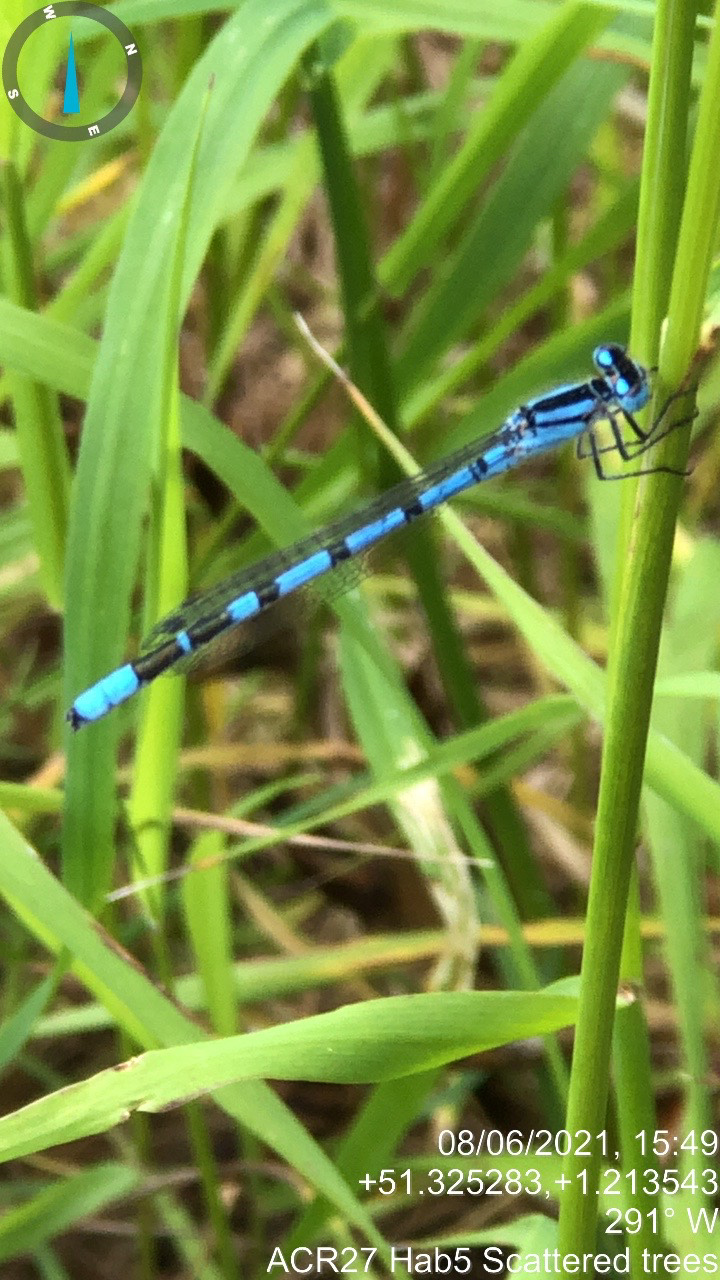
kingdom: Animalia
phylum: Arthropoda
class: Insecta
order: Odonata
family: Coenagrionidae
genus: Enallagma
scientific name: Enallagma cyathigerum
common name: Common blue damselfly
